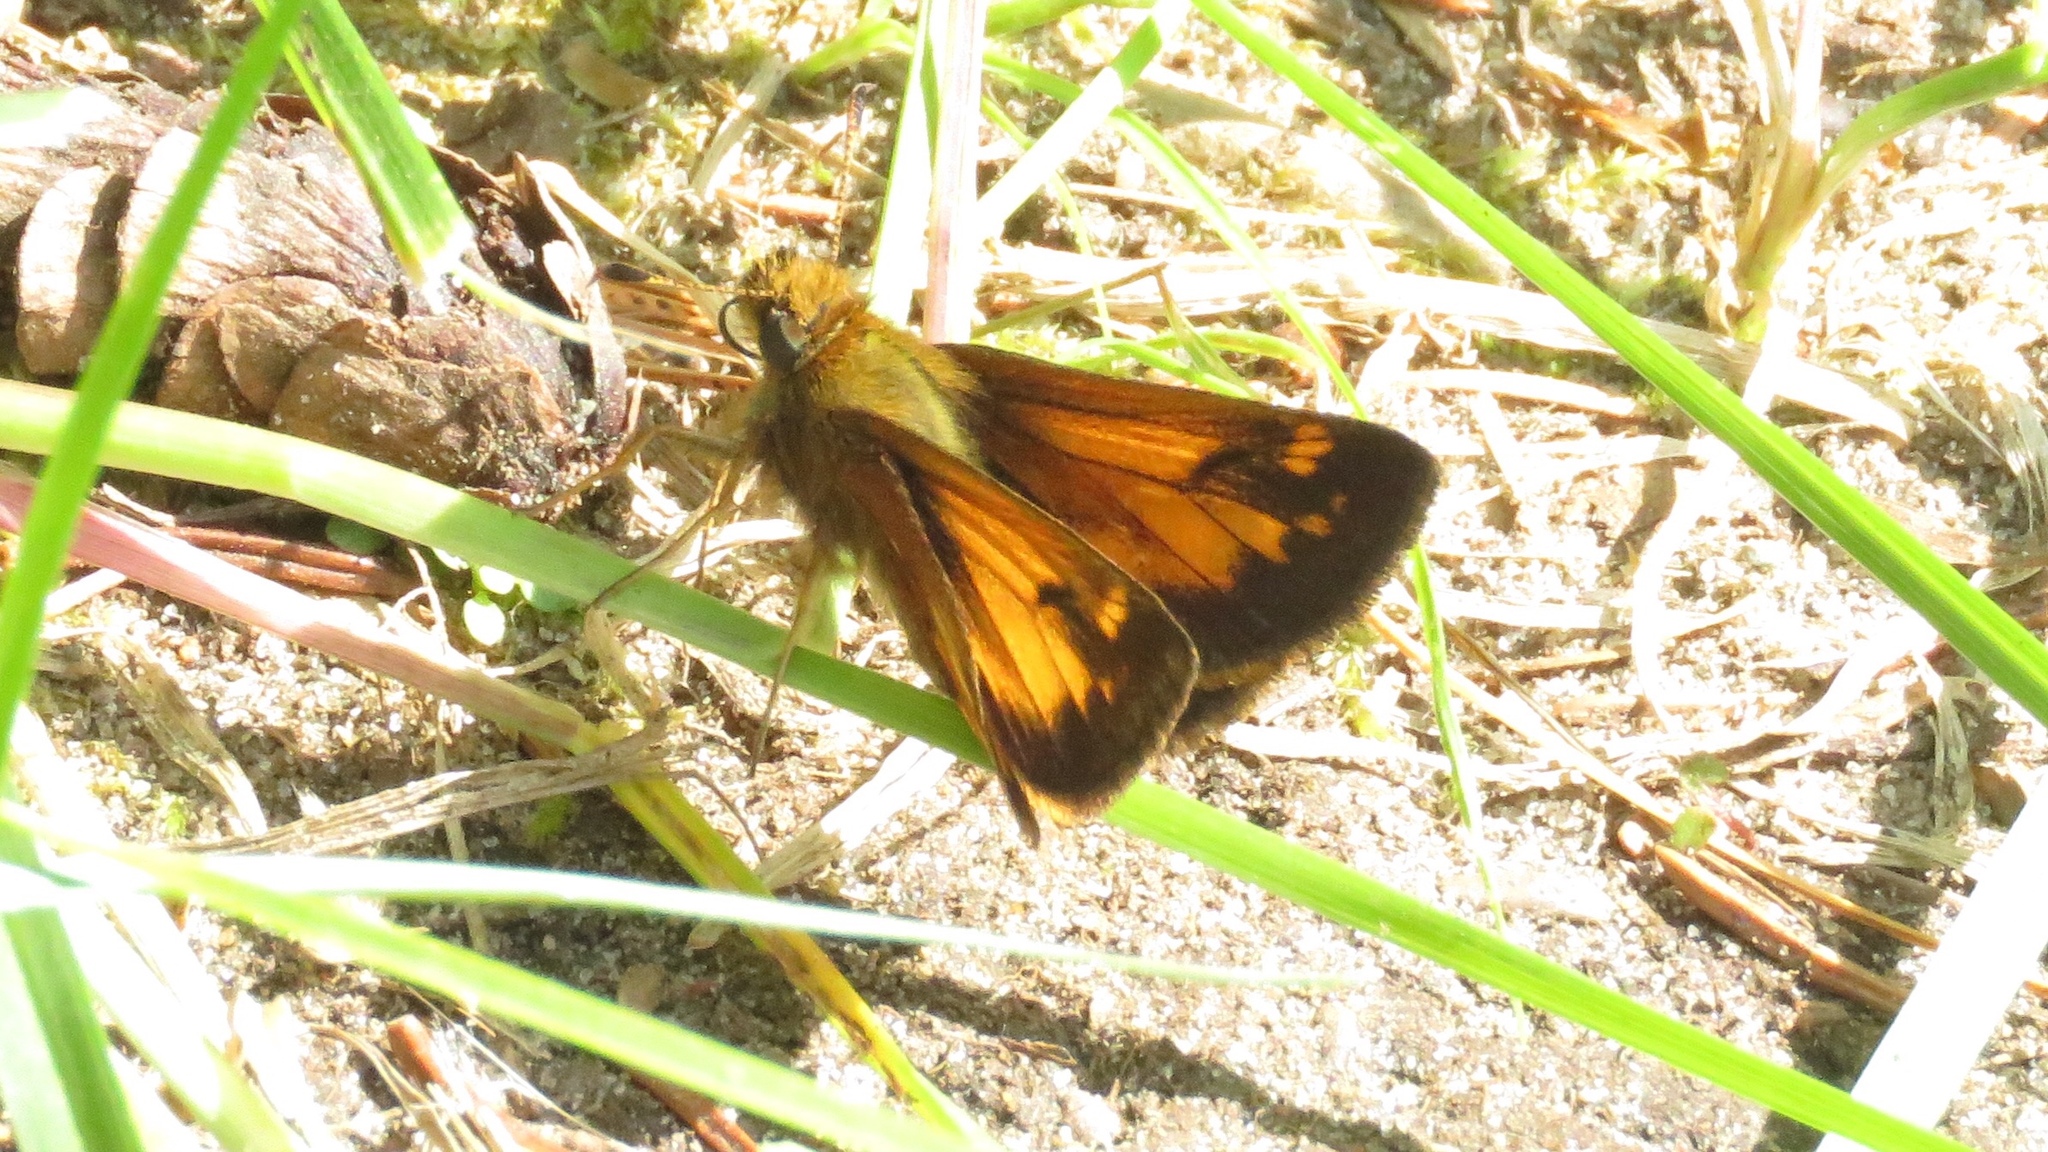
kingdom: Animalia
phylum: Arthropoda
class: Insecta
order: Lepidoptera
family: Hesperiidae
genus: Lon
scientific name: Lon hobomok
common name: Hobomok skipper
